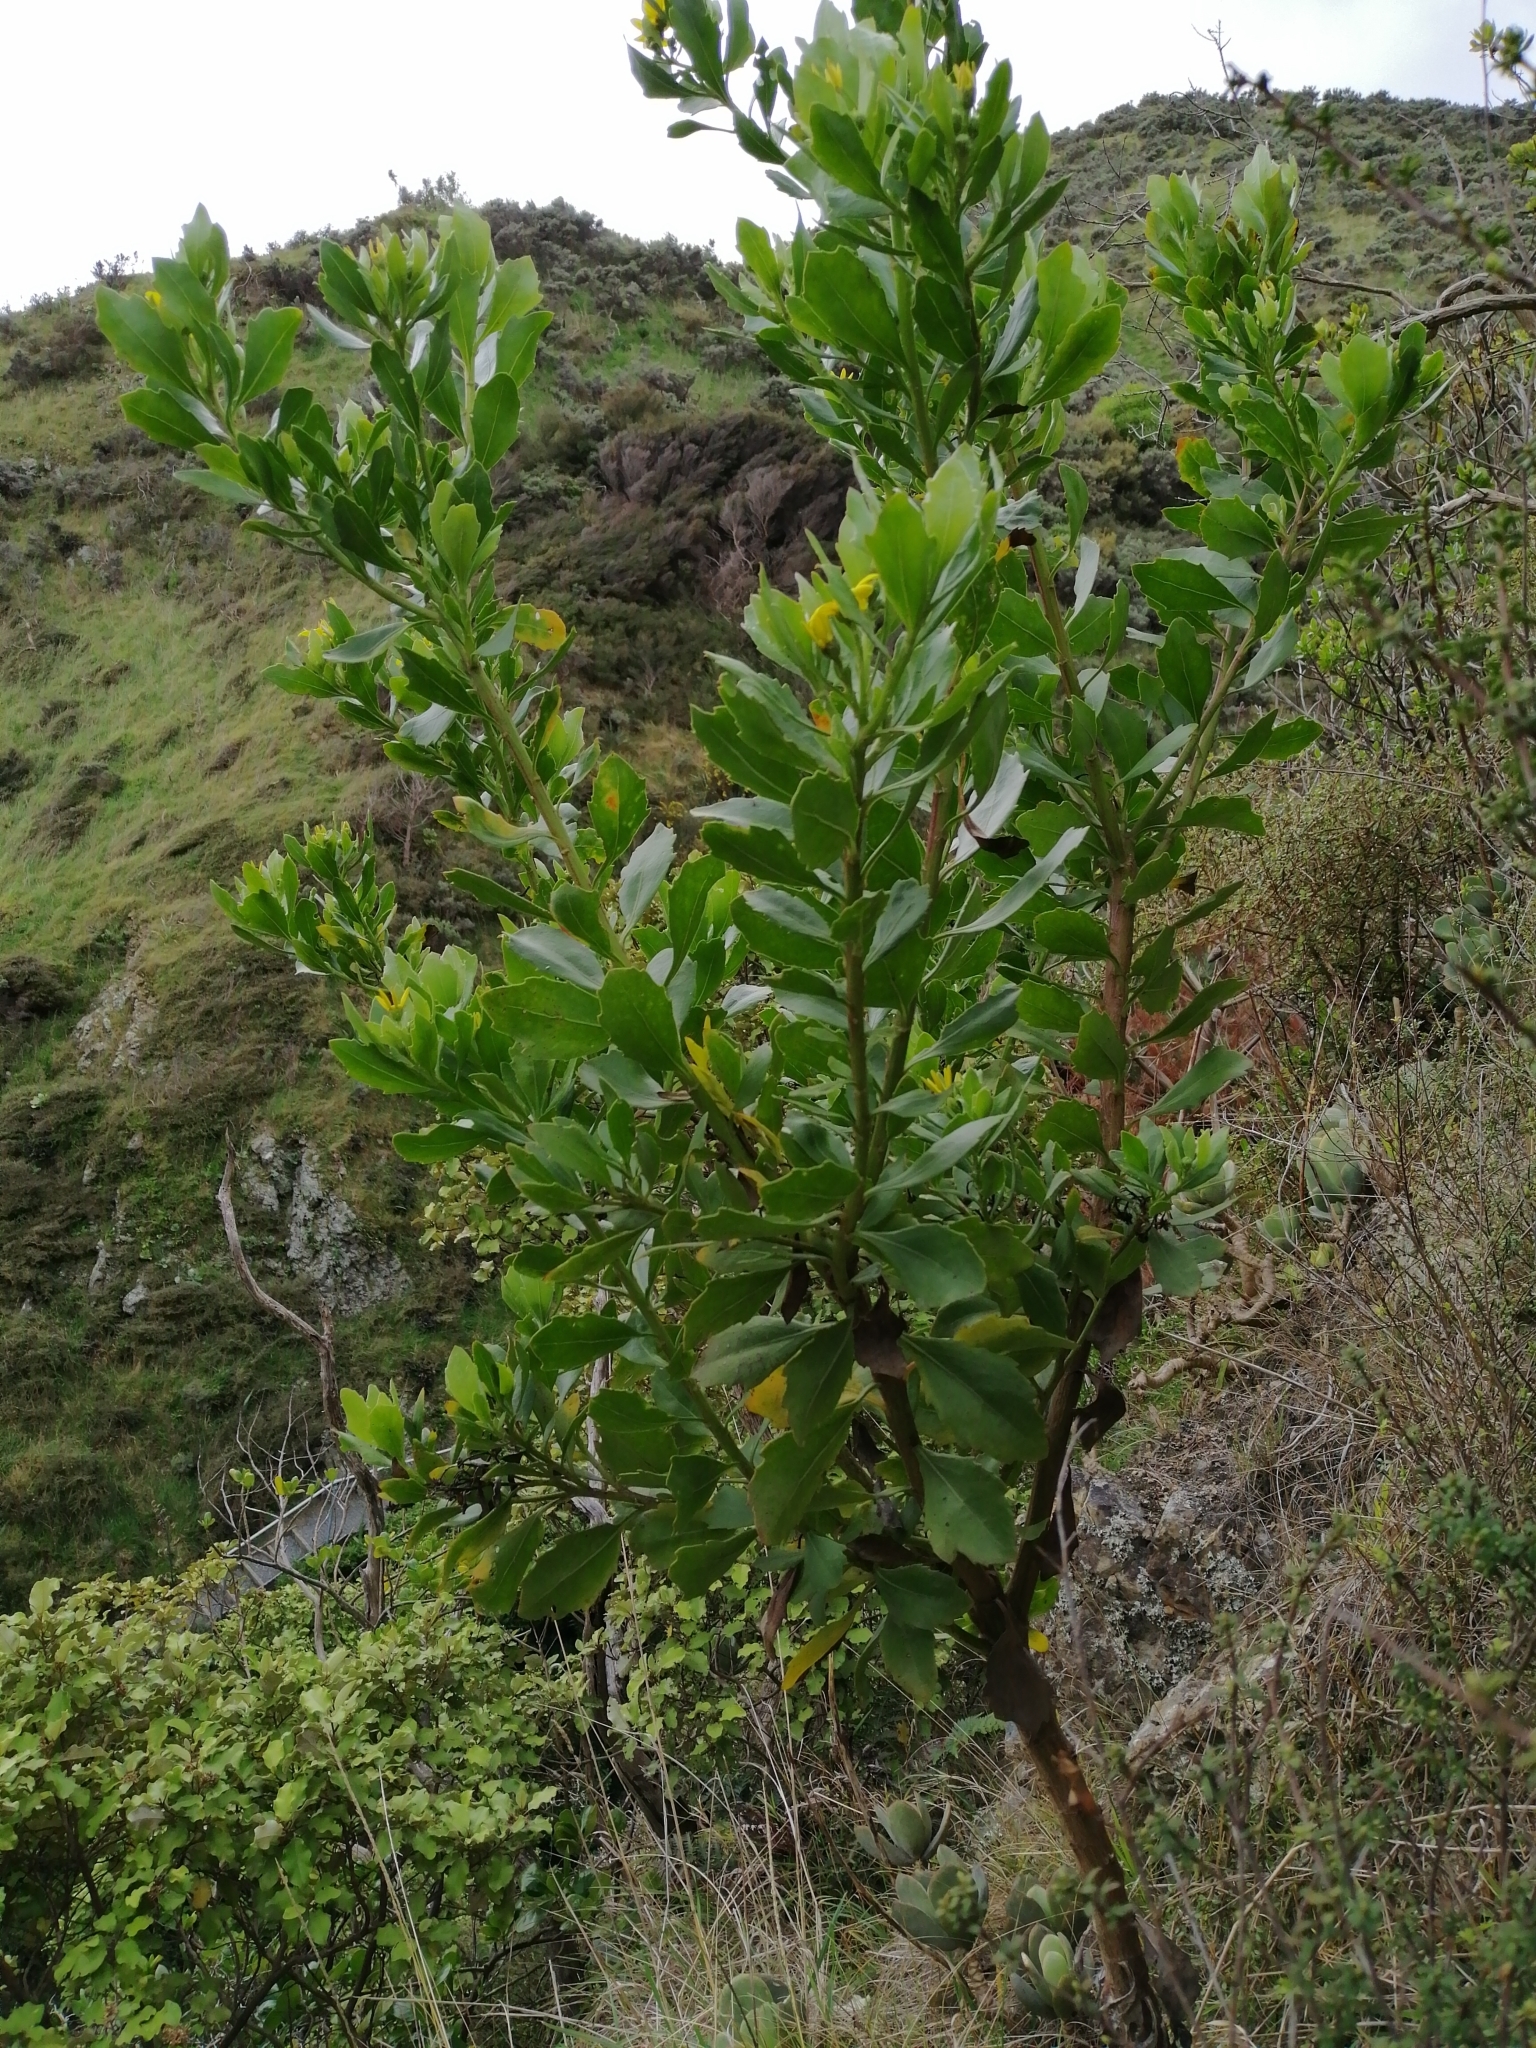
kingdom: Plantae
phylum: Tracheophyta
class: Magnoliopsida
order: Asterales
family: Asteraceae
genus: Osteospermum
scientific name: Osteospermum moniliferum
